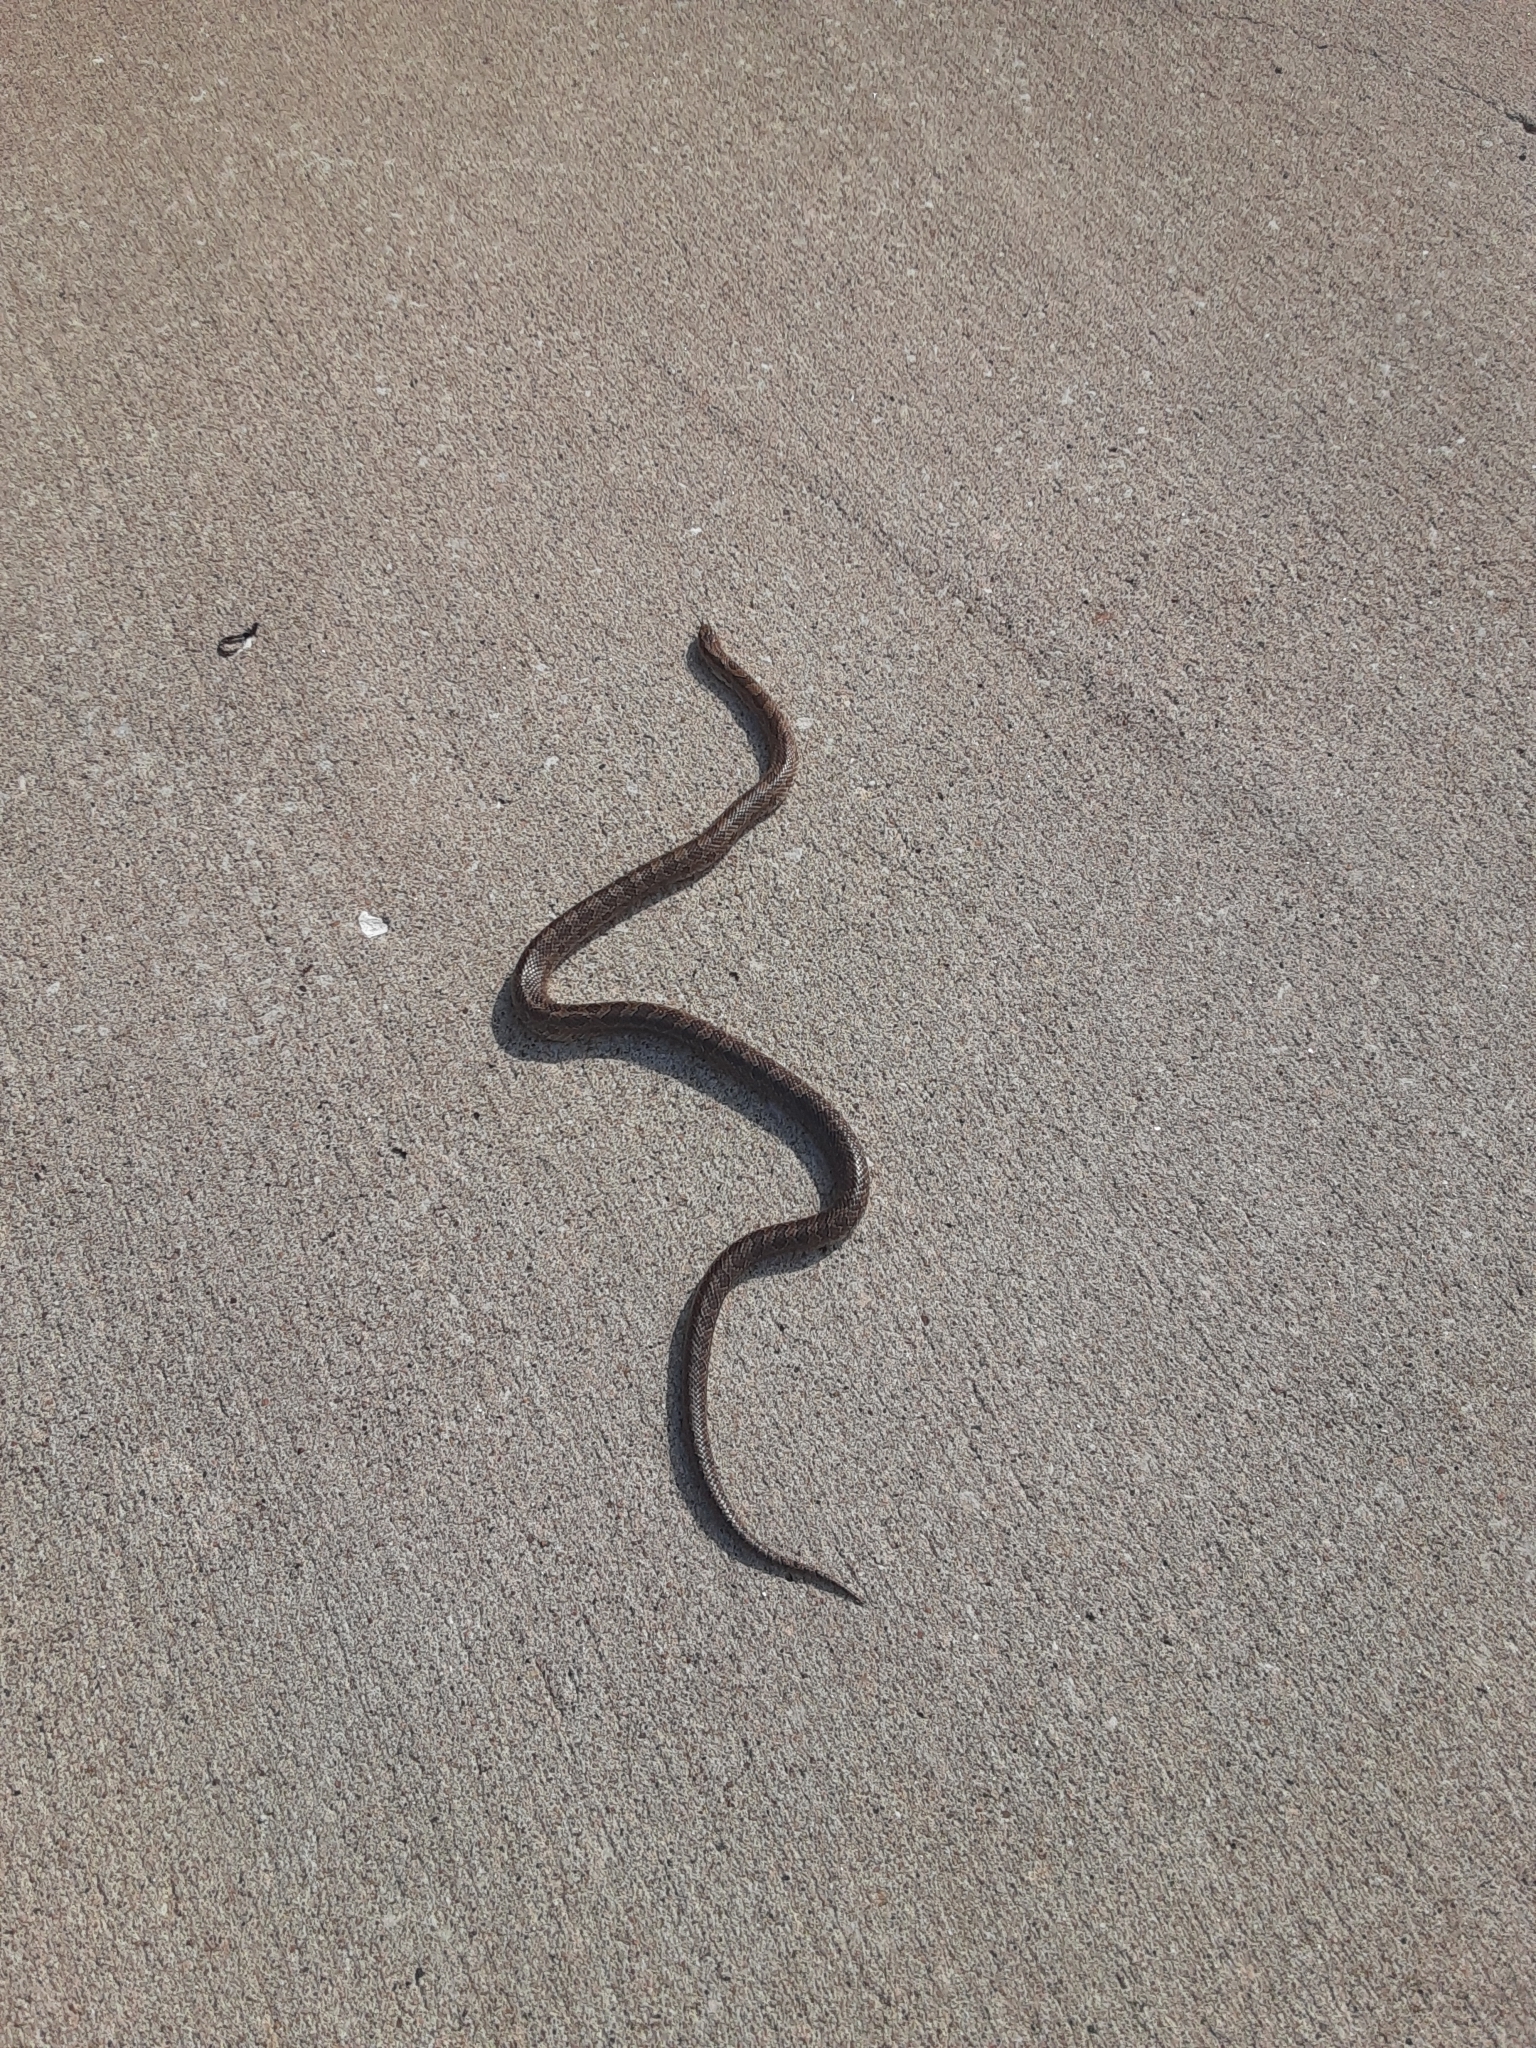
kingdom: Animalia
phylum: Chordata
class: Squamata
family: Colubridae
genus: Lampropeltis
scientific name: Lampropeltis calligaster
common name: Prairie kingsnake
